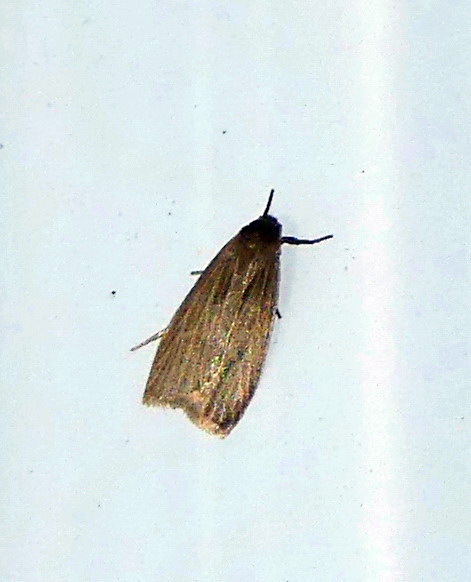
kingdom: Animalia
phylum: Arthropoda
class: Insecta
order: Lepidoptera
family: Erebidae
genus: Crambidia
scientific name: Crambidia pallida
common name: Pale lichen moth
